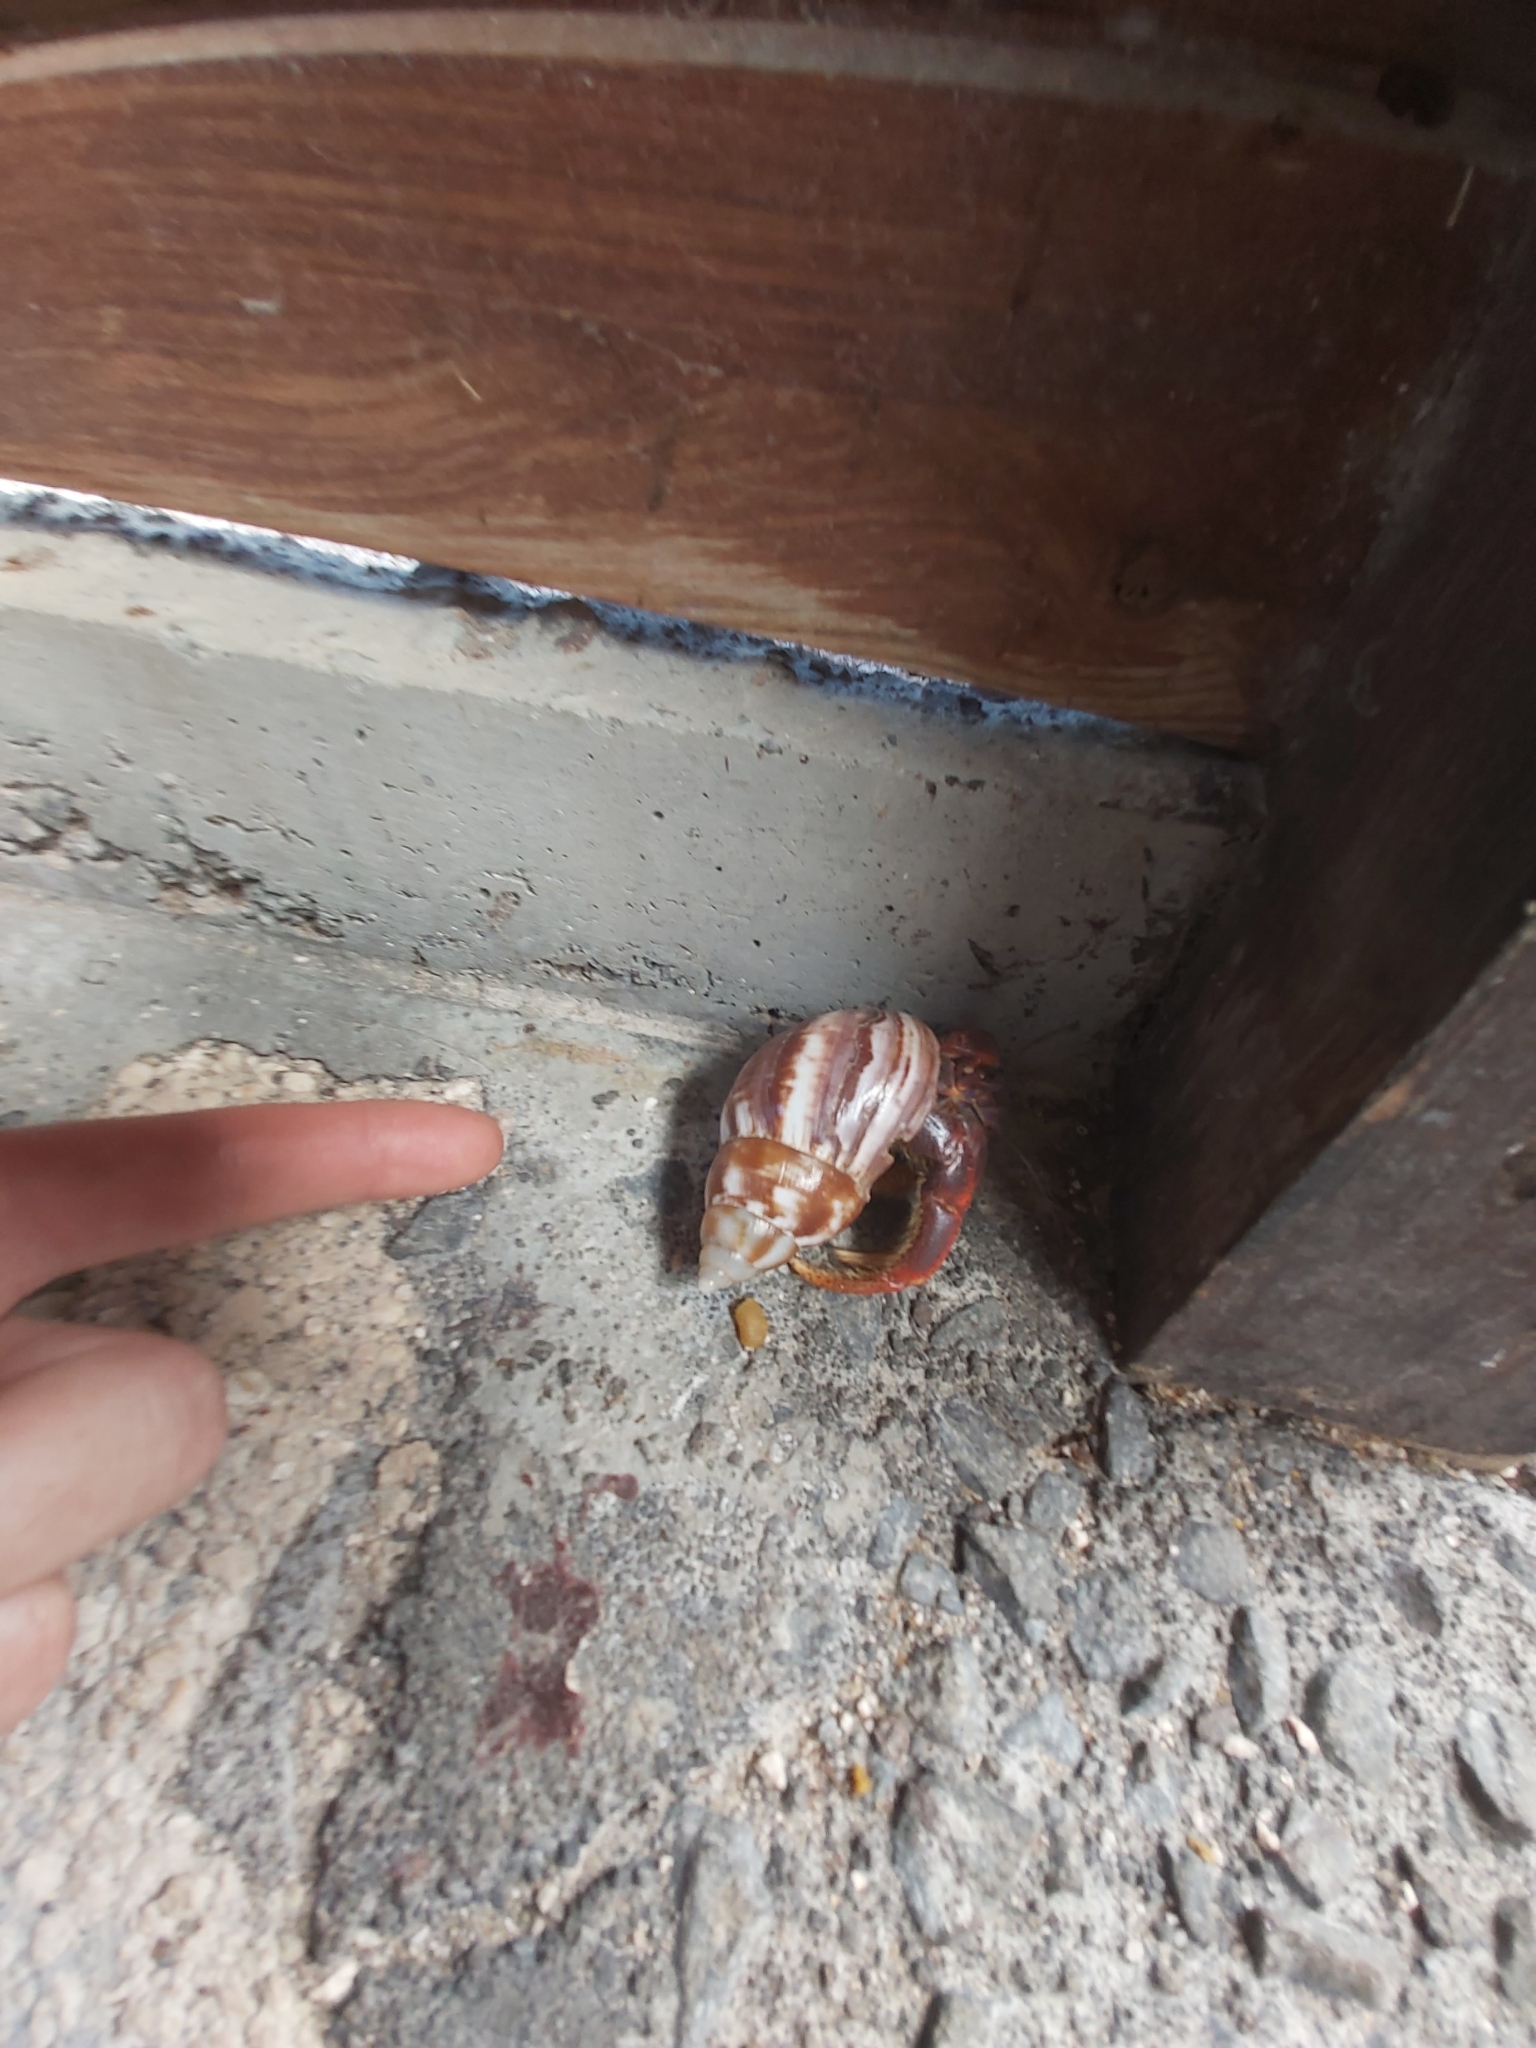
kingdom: Animalia
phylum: Arthropoda
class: Malacostraca
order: Decapoda
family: Coenobitidae
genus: Coenobita
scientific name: Coenobita clypeatus
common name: Caribbean hermit crab
